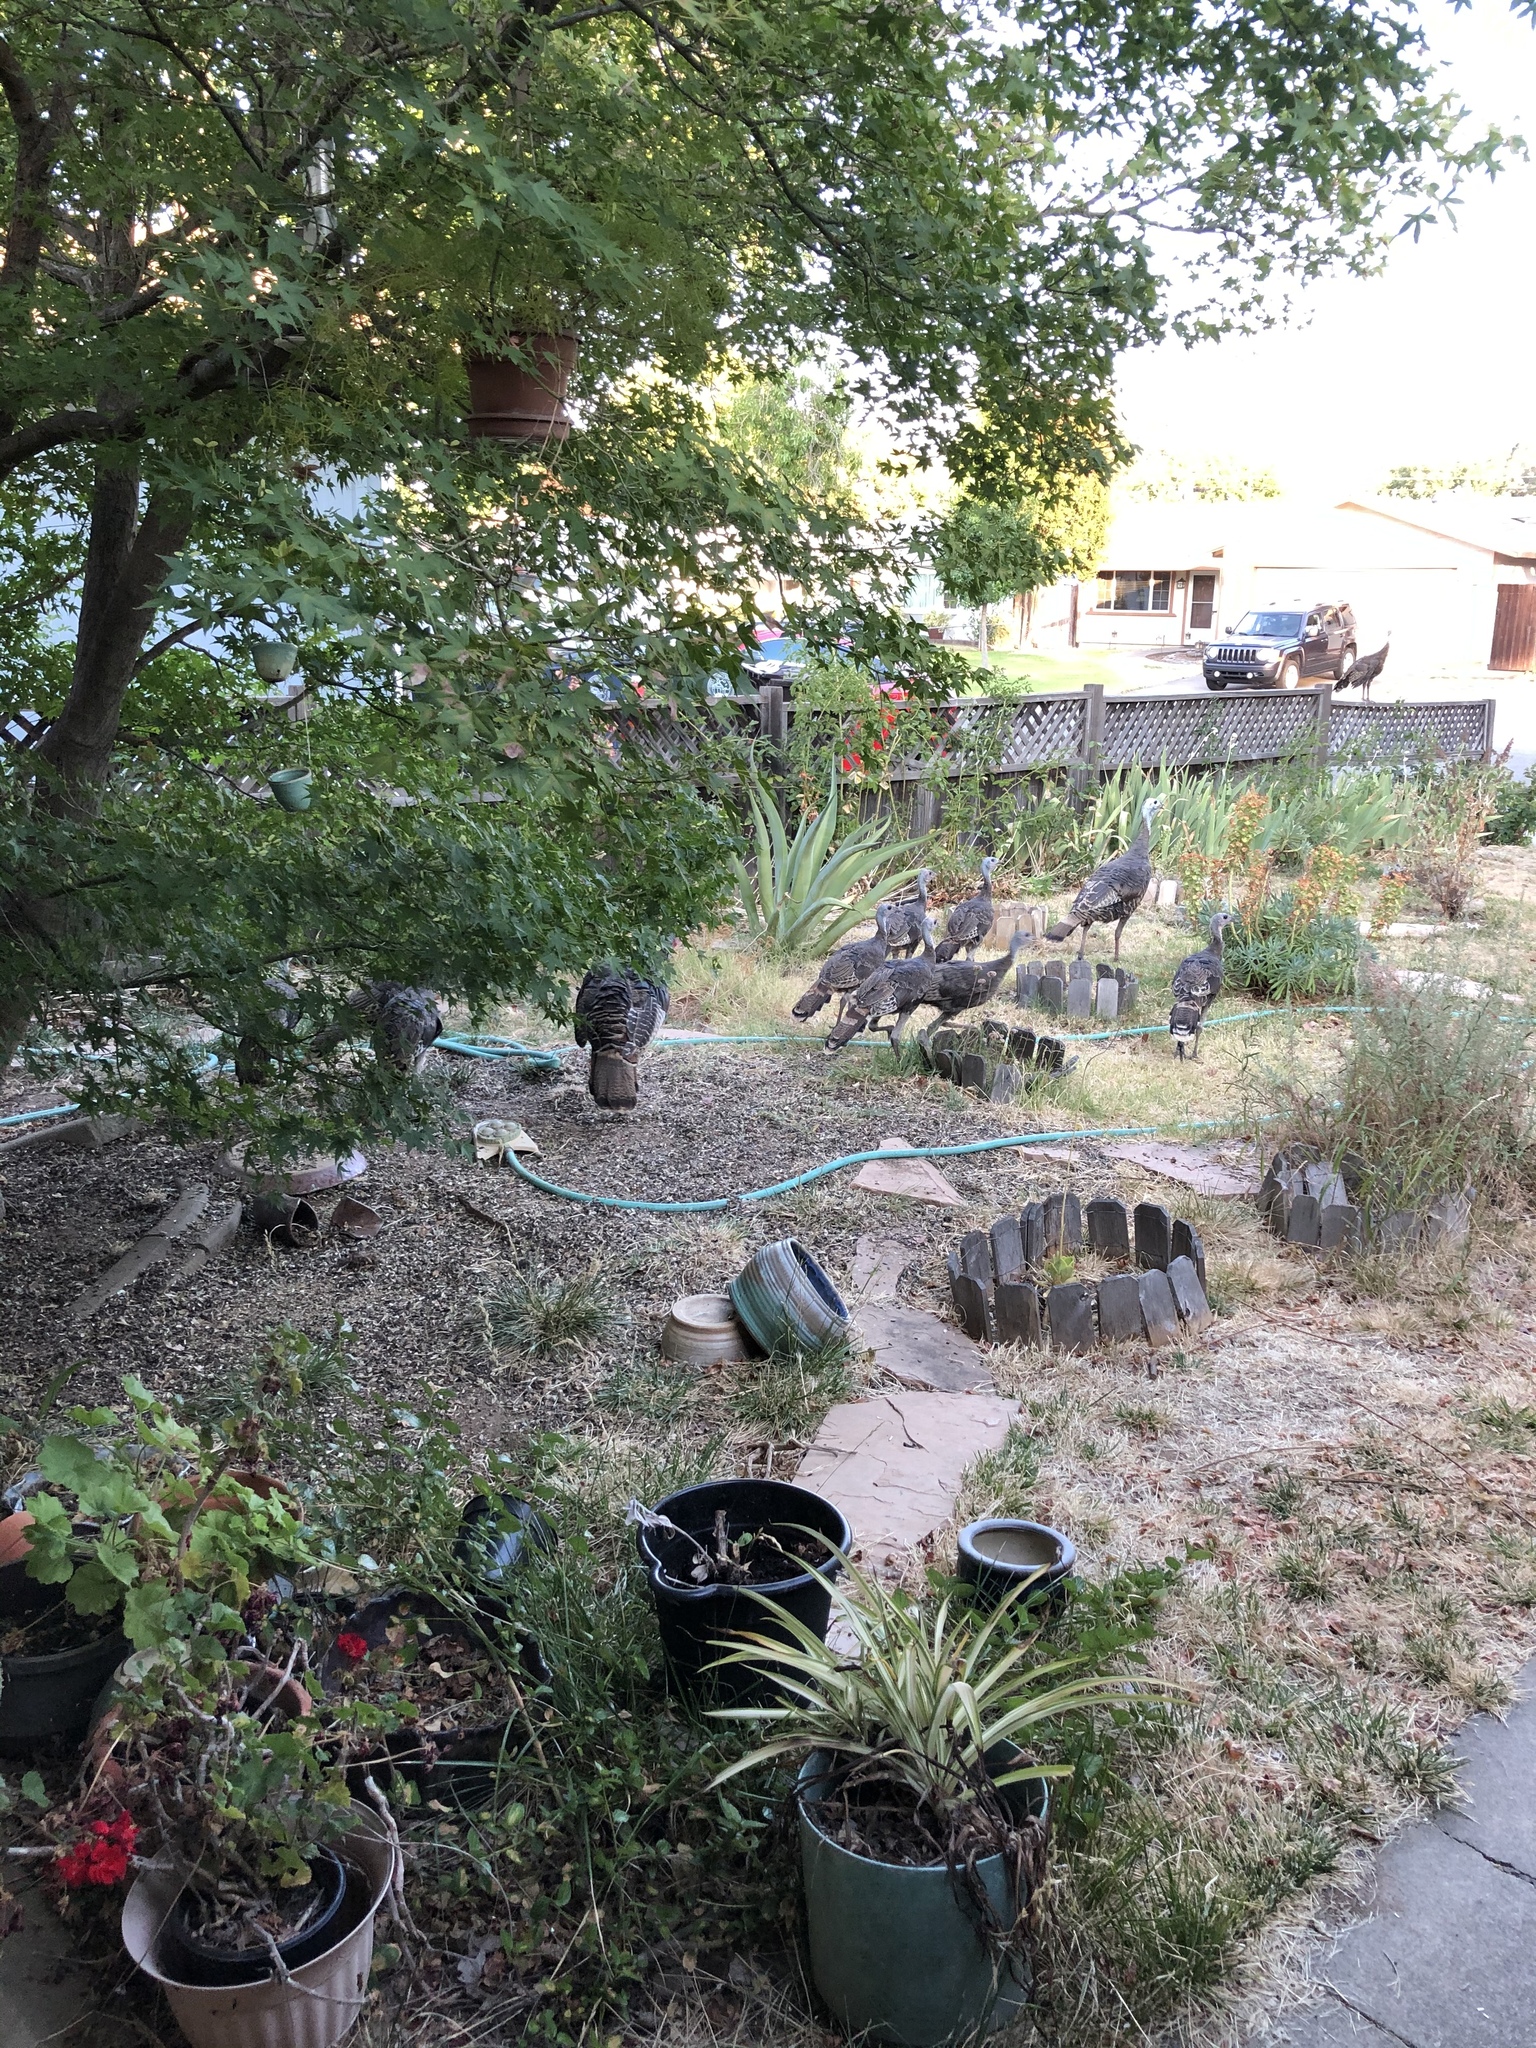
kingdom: Animalia
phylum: Chordata
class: Aves
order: Galliformes
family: Phasianidae
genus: Meleagris
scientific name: Meleagris gallopavo
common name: Wild turkey
